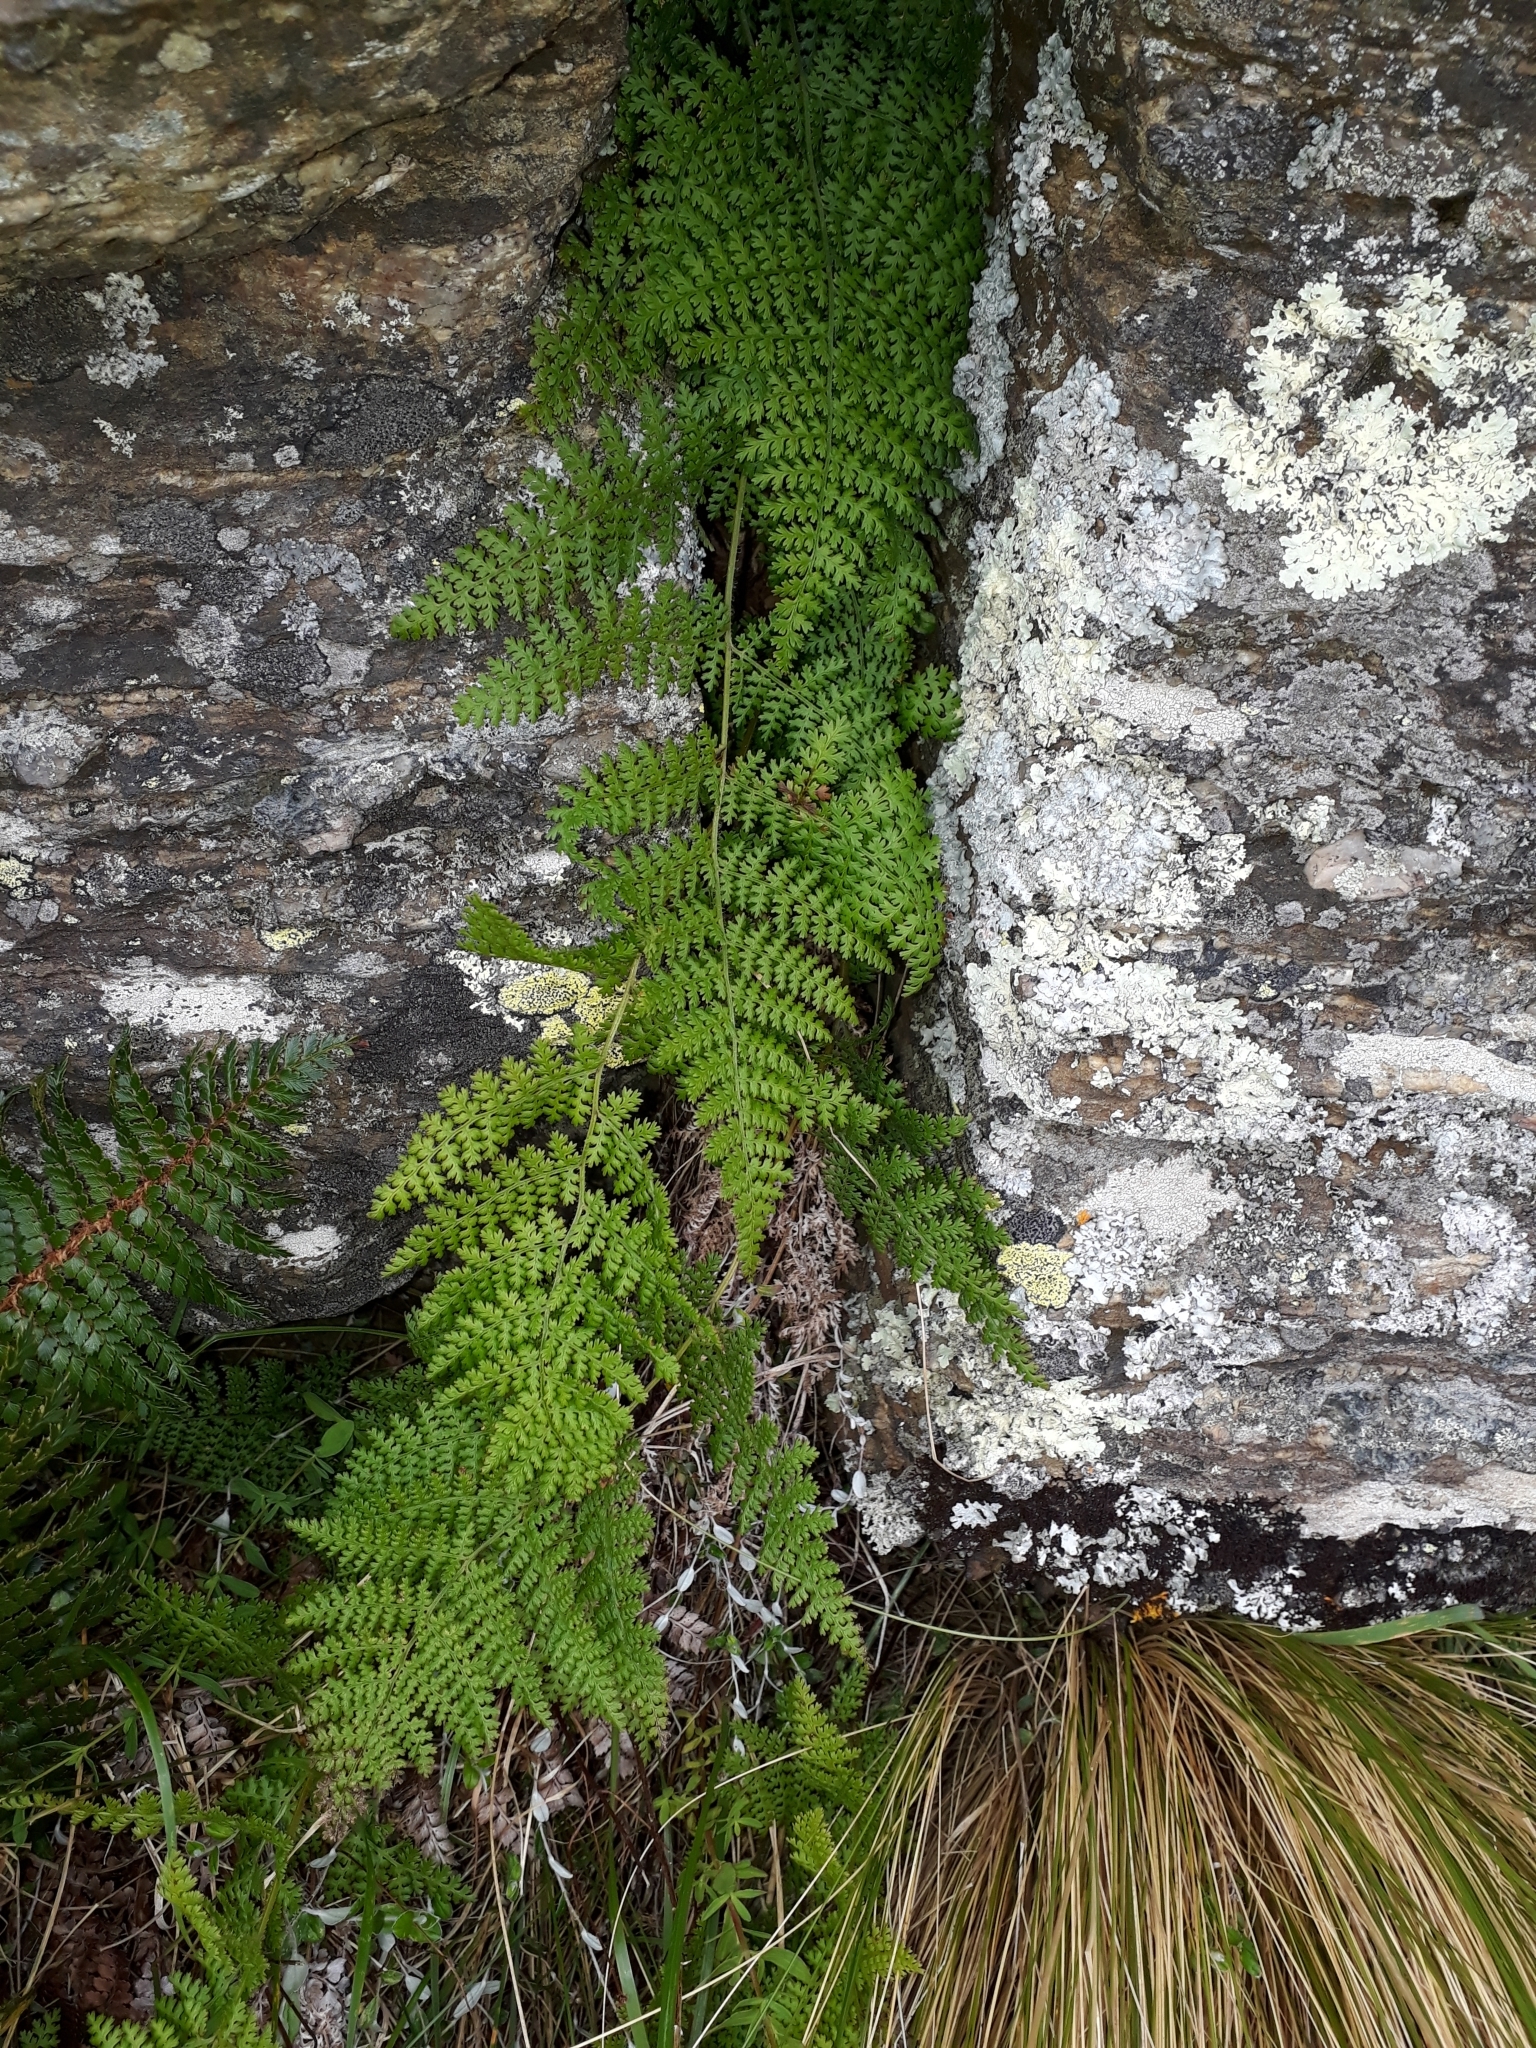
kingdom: Plantae
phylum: Tracheophyta
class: Polypodiopsida
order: Polypodiales
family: Dennstaedtiaceae
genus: Hypolepis
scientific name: Hypolepis millefolium
